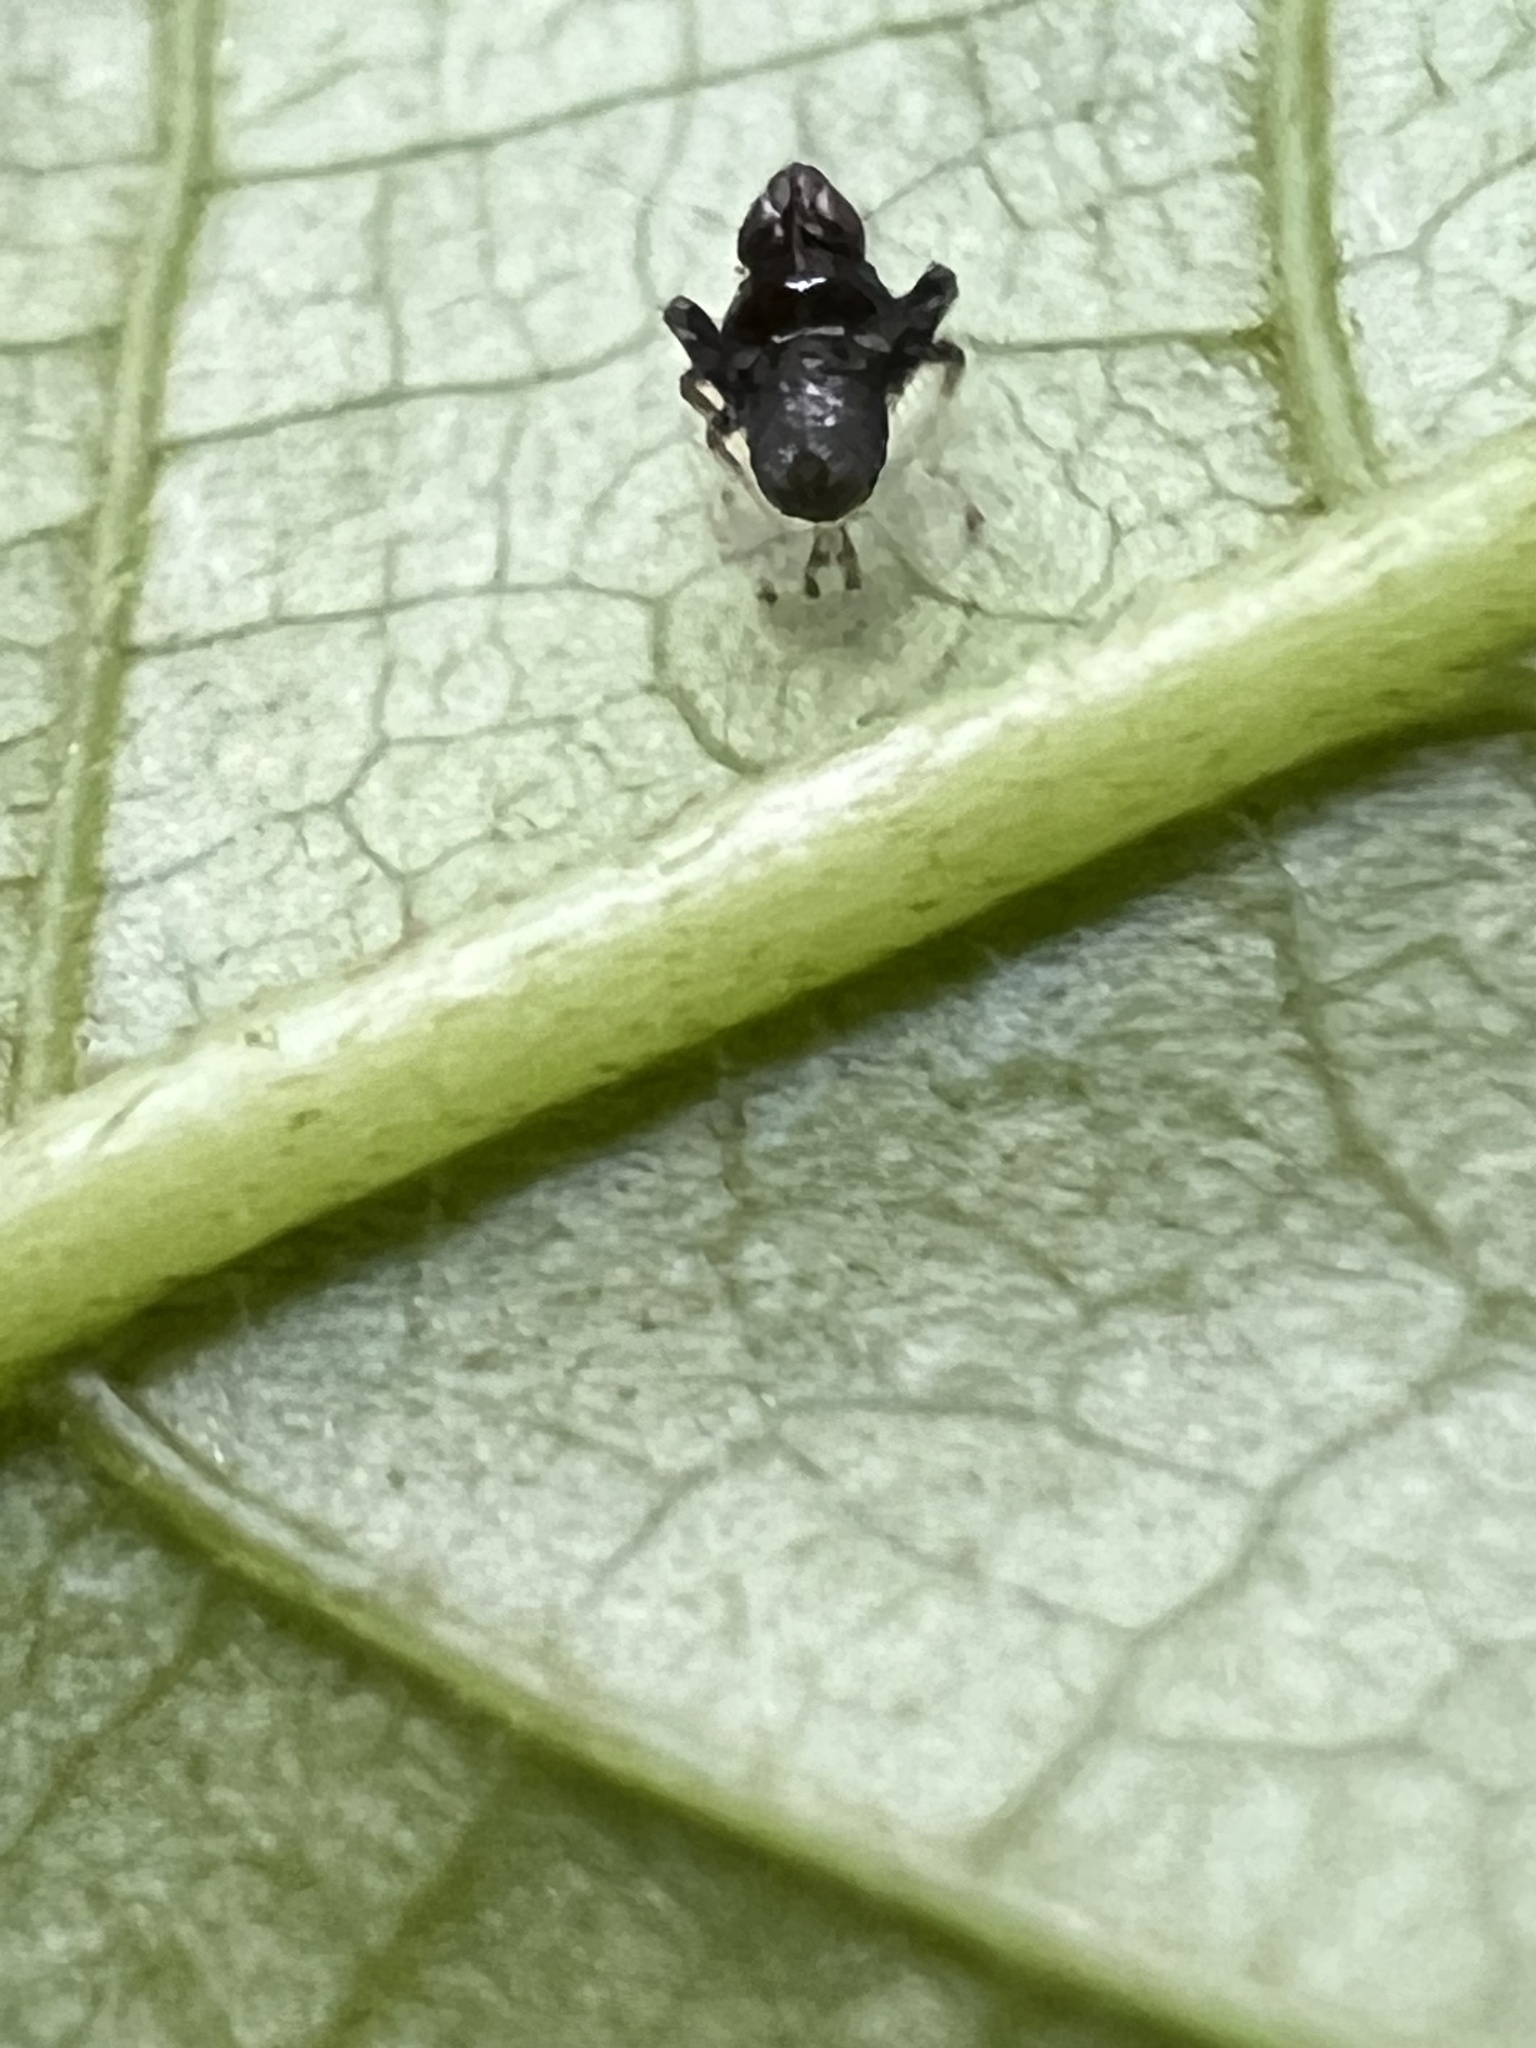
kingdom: Animalia
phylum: Arthropoda
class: Insecta
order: Hemiptera
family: Cicadellidae
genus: Jikradia
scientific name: Jikradia olitoria
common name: Coppery leafhopper
